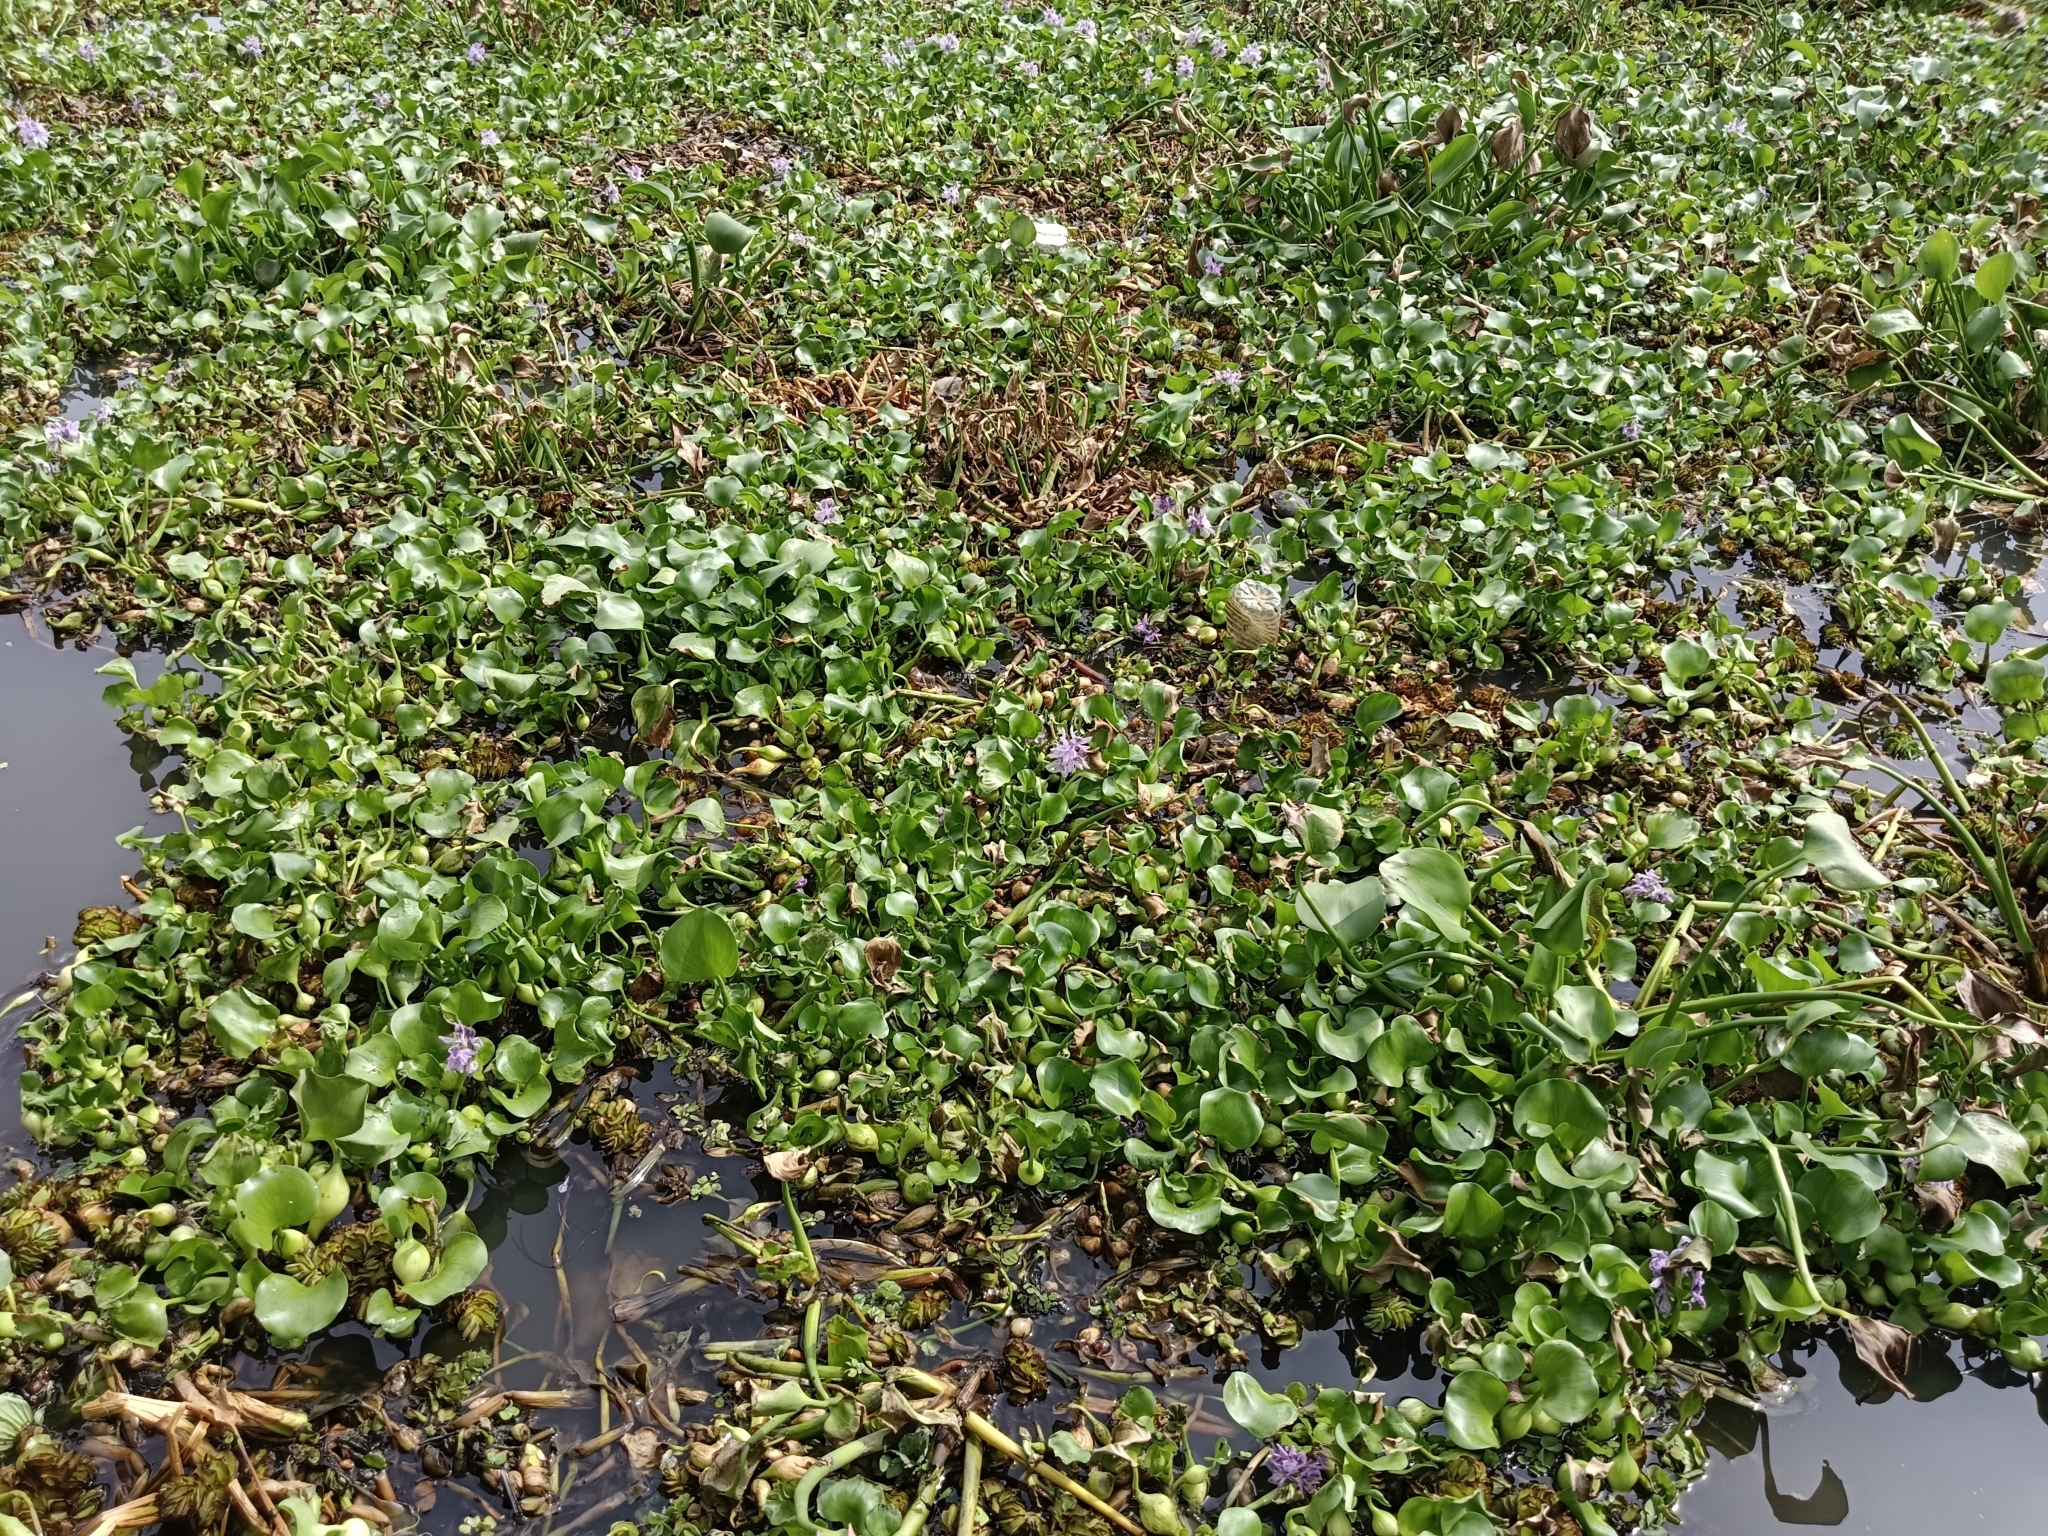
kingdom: Plantae
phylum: Tracheophyta
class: Liliopsida
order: Commelinales
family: Pontederiaceae
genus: Pontederia
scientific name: Pontederia crassipes
